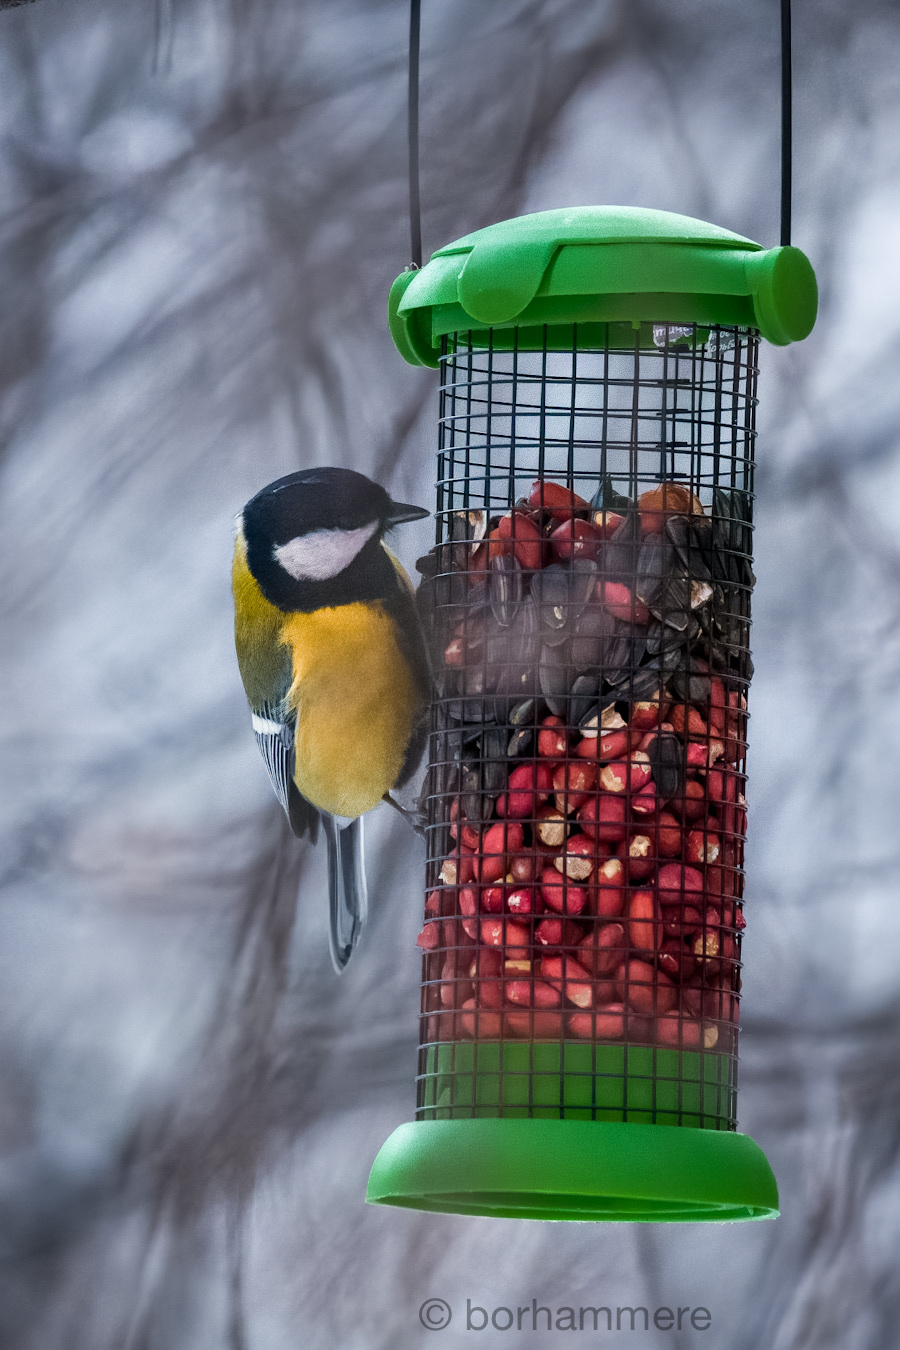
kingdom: Animalia
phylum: Chordata
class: Aves
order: Passeriformes
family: Paridae
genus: Parus
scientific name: Parus major
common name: Great tit
